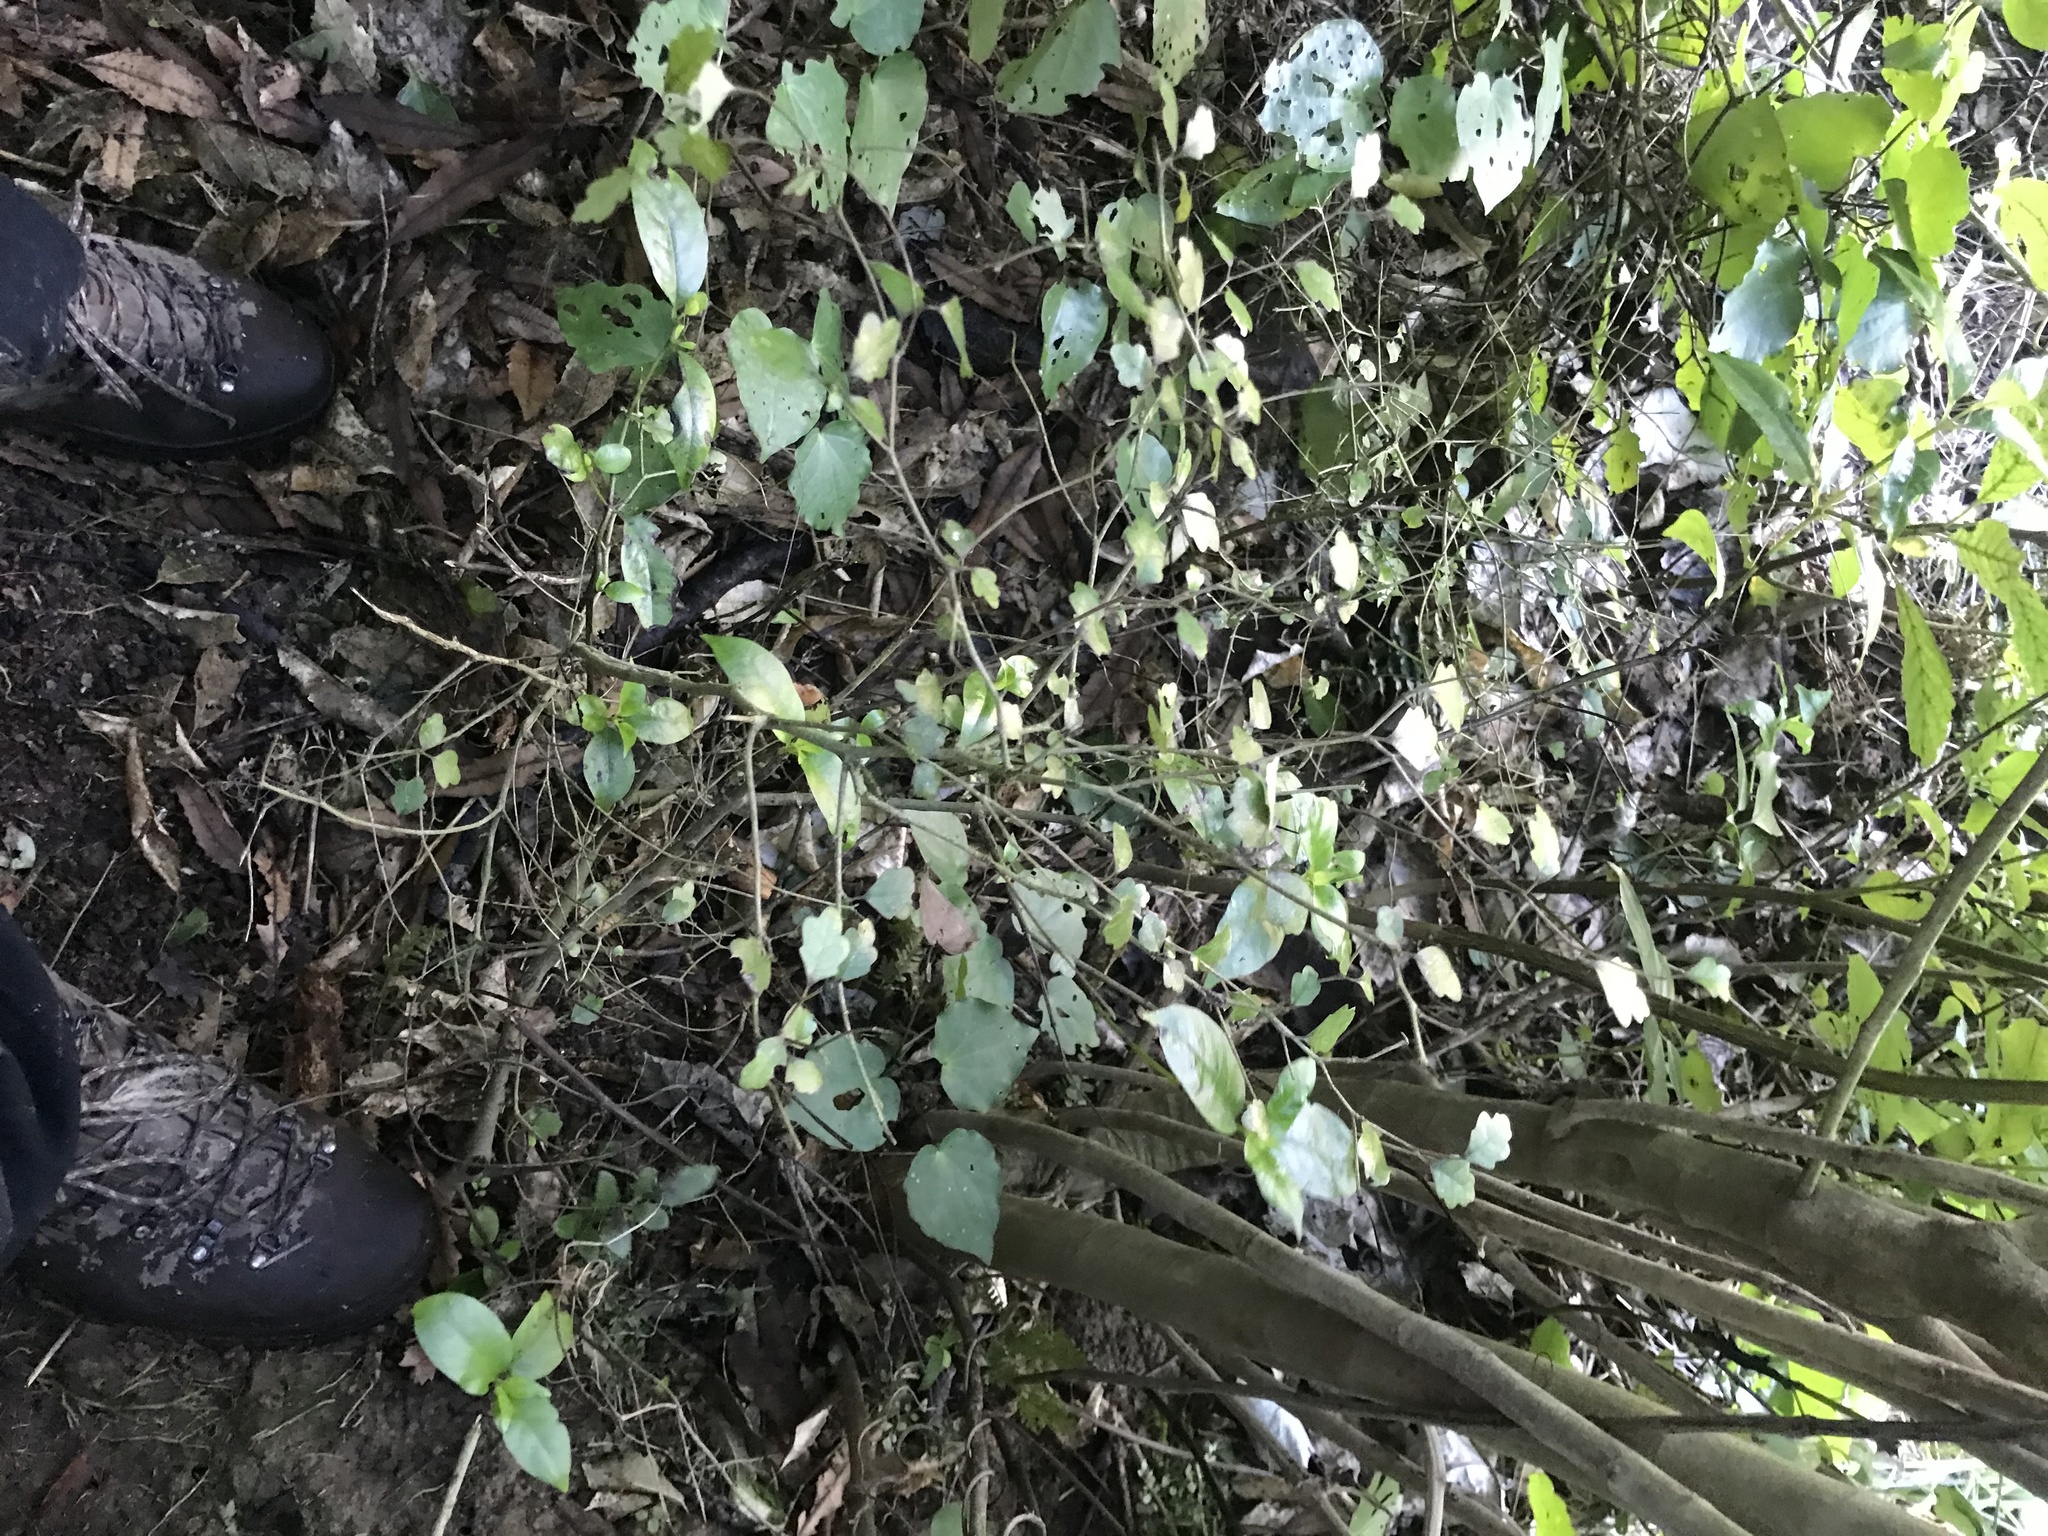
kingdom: Plantae
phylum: Tracheophyta
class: Magnoliopsida
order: Apiales
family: Pennantiaceae
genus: Pennantia
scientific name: Pennantia corymbosa
